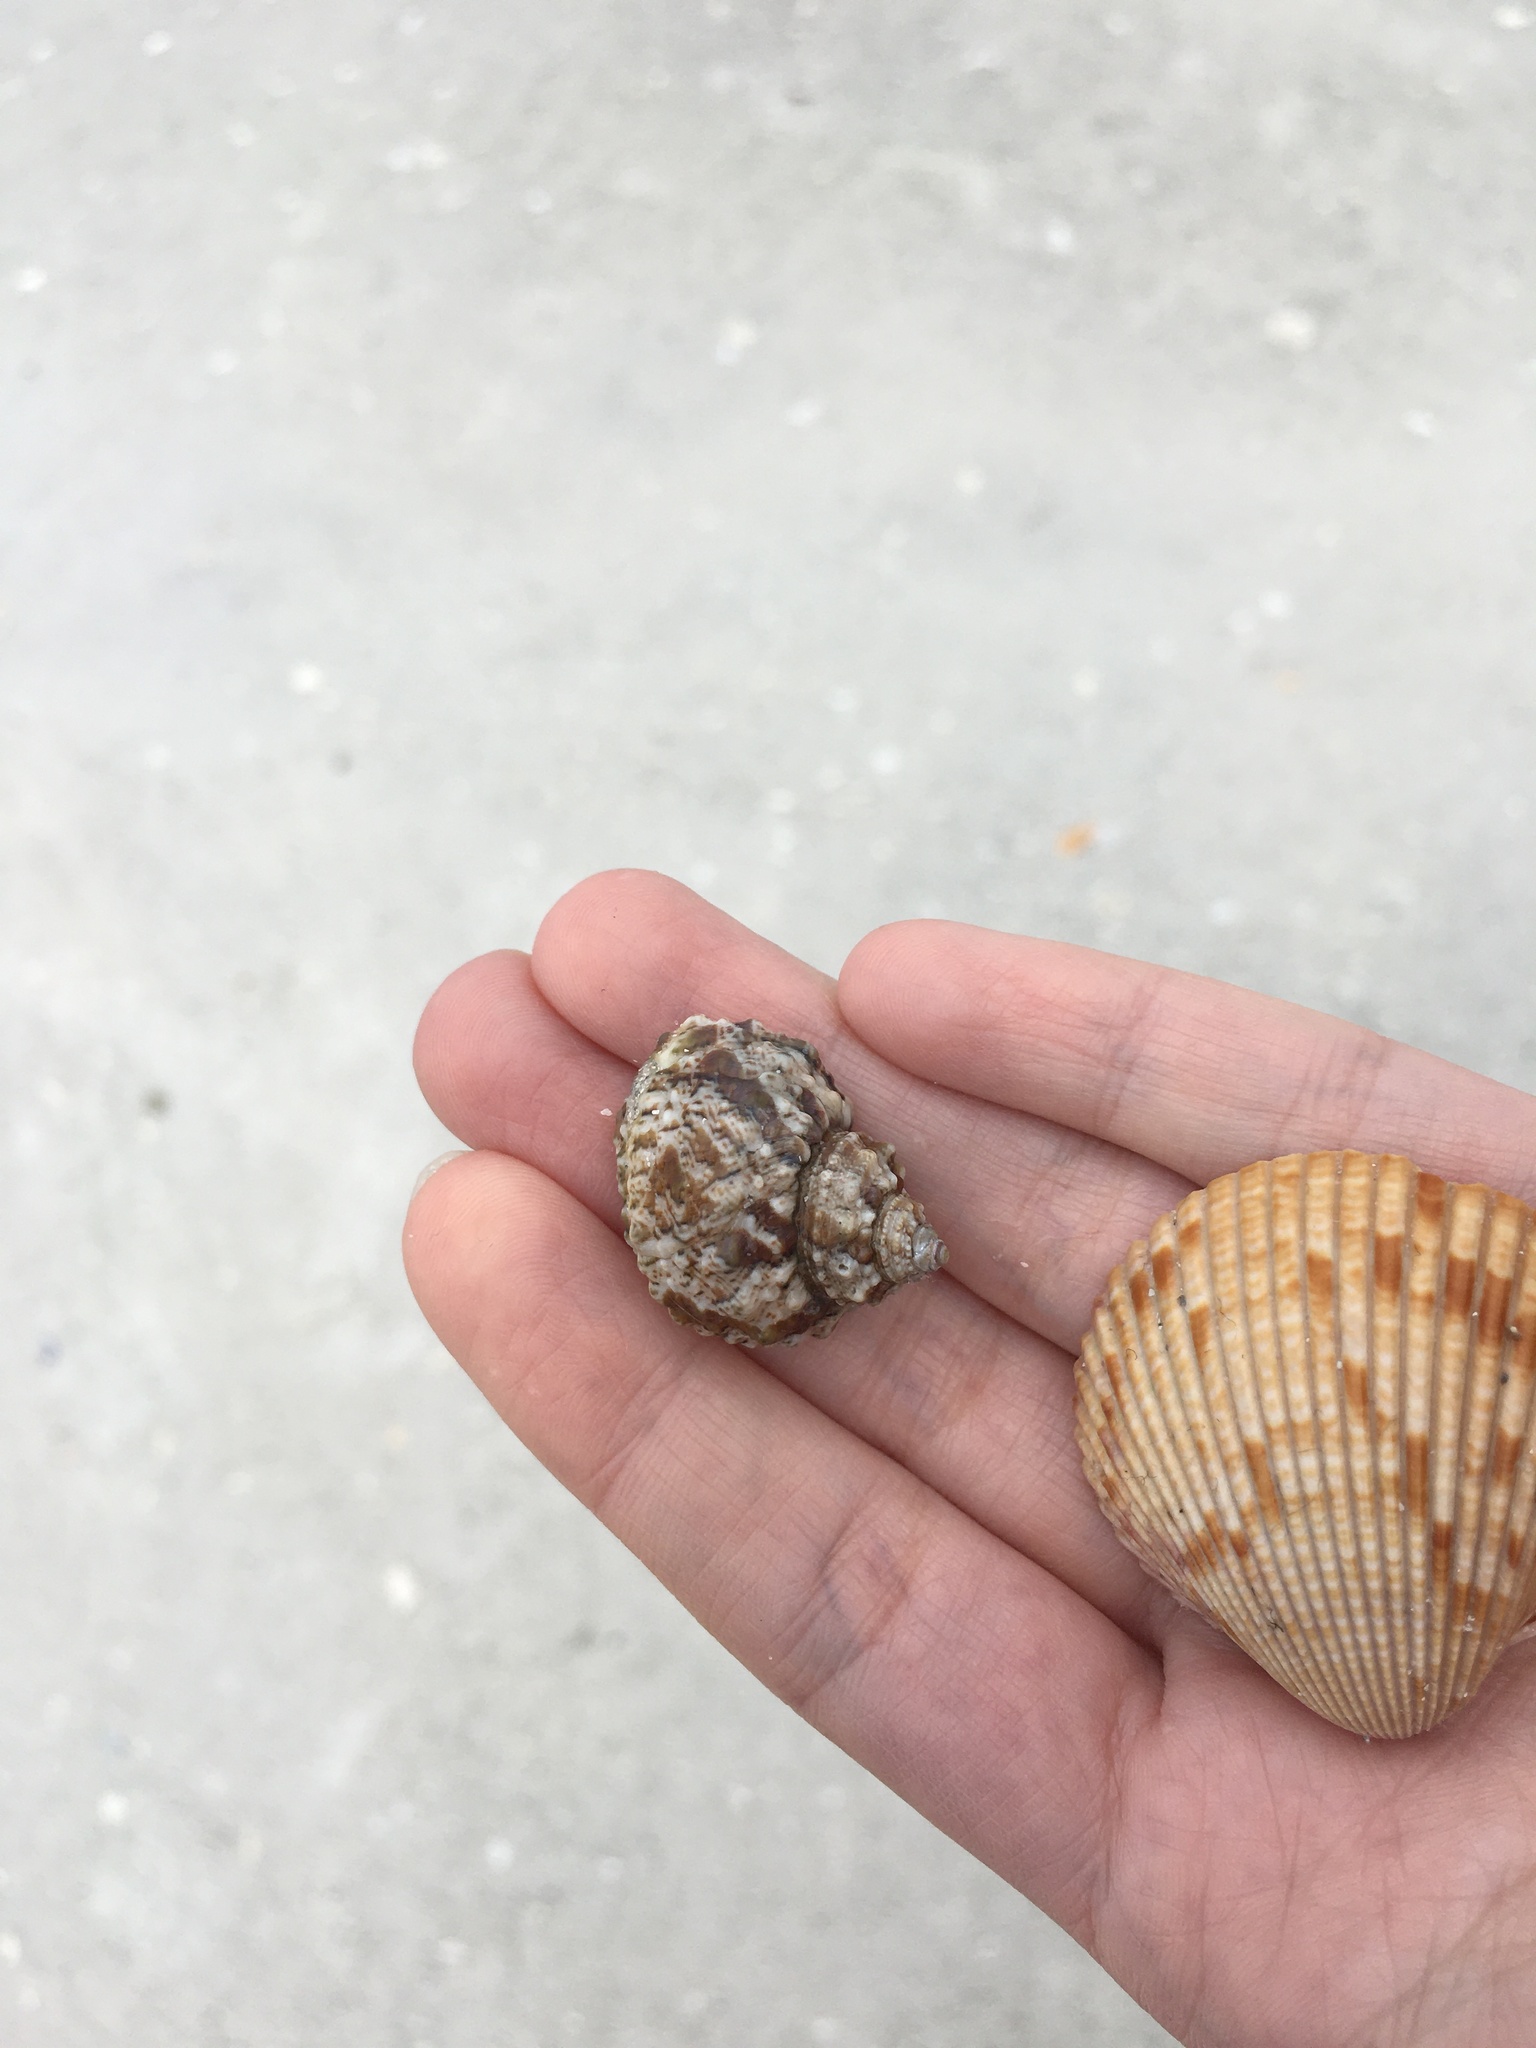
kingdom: Animalia
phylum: Mollusca
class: Bivalvia
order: Cardiida
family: Cardiidae
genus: Dinocardium
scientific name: Dinocardium robustum
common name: Atlantic giant cockle
